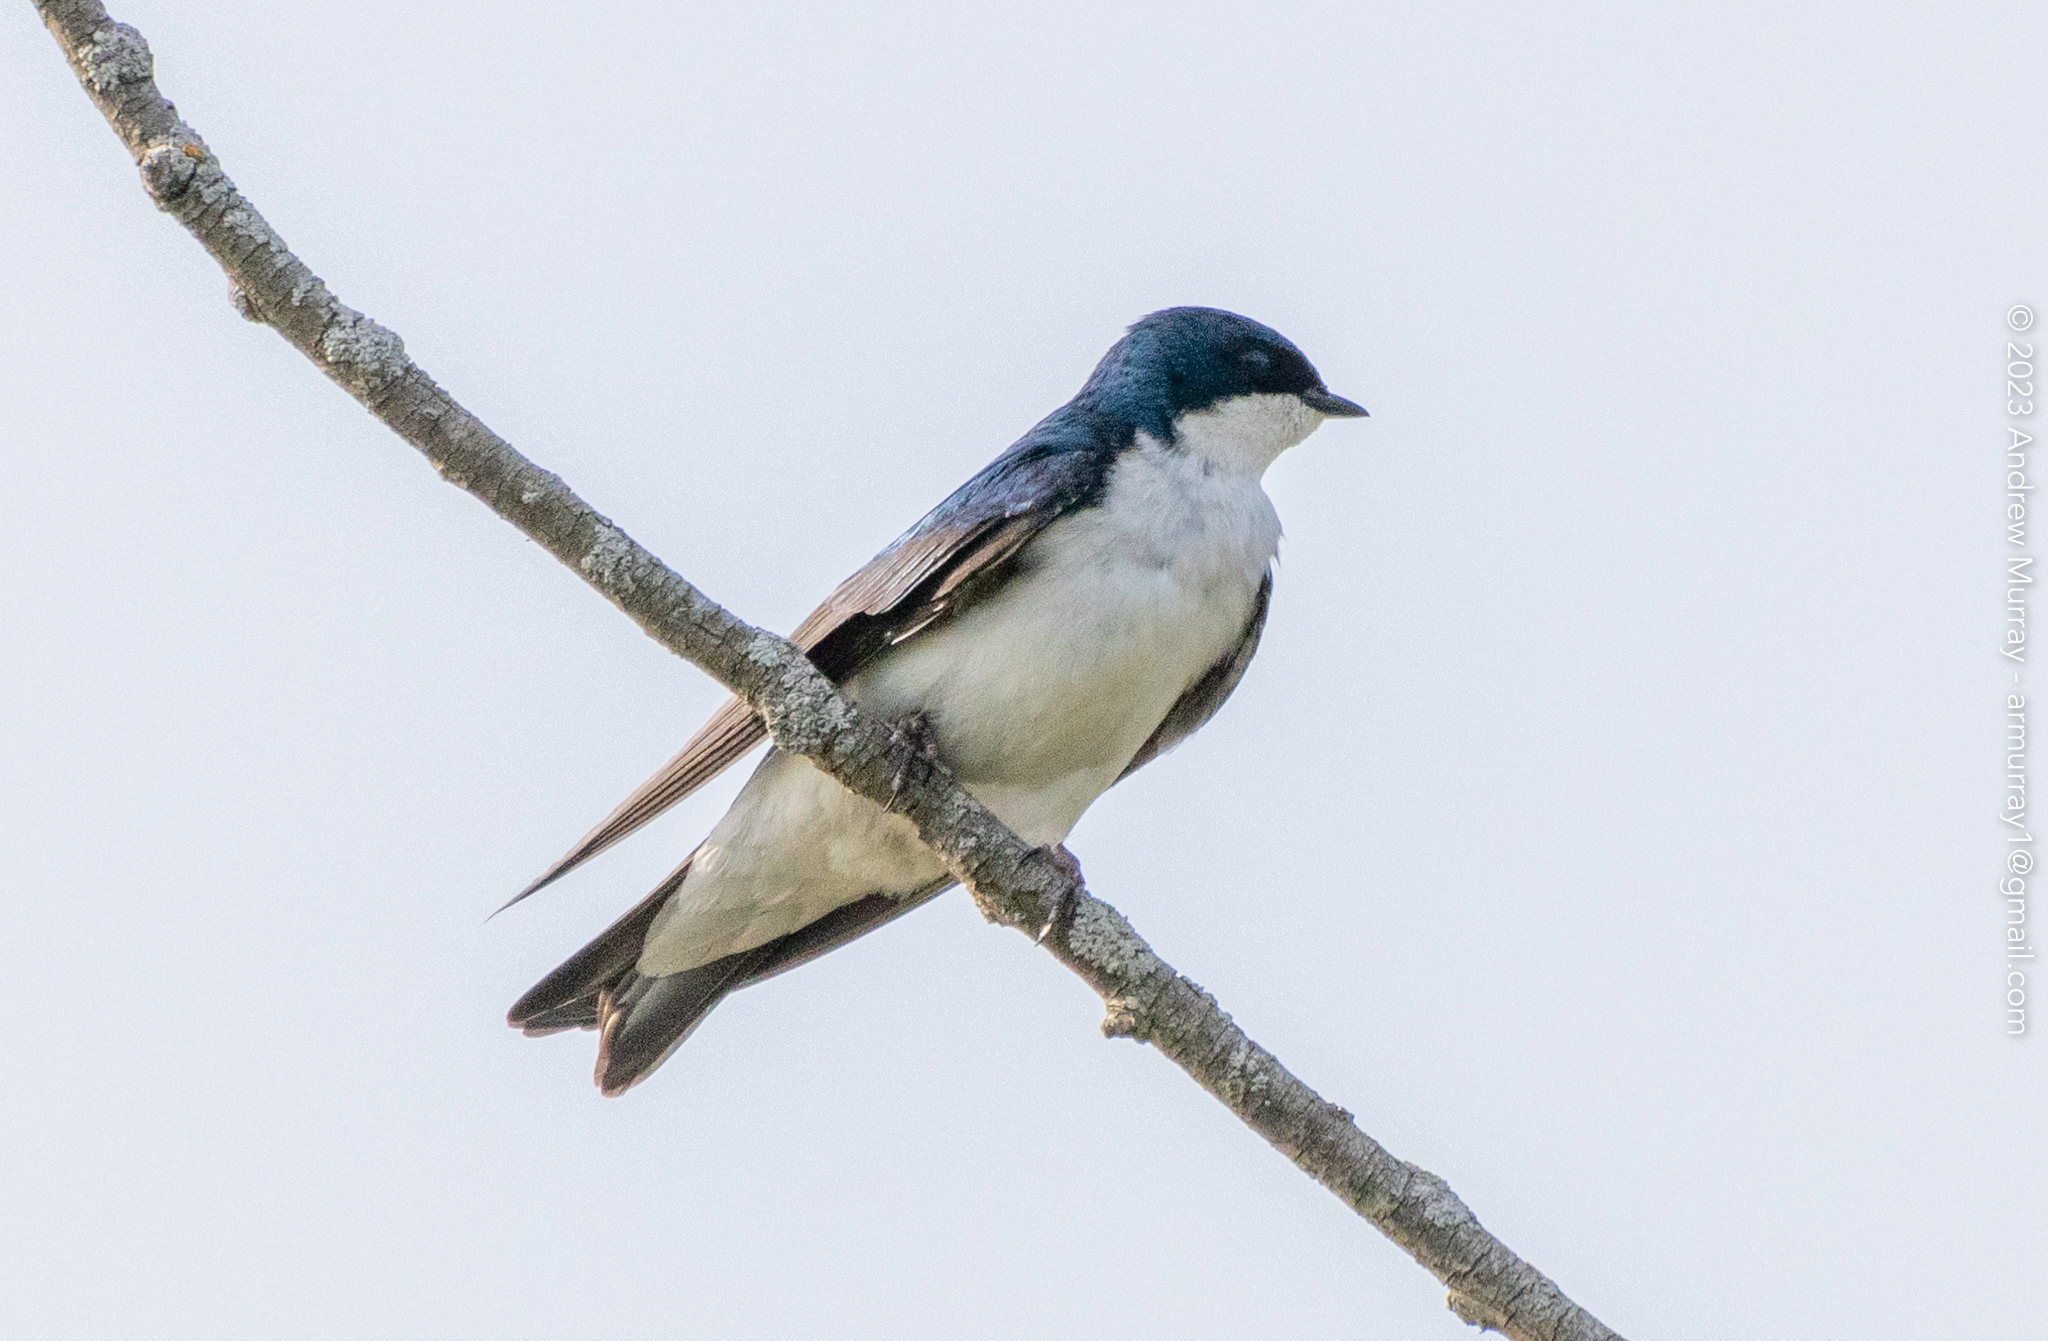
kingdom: Animalia
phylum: Chordata
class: Aves
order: Passeriformes
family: Hirundinidae
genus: Tachycineta
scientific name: Tachycineta bicolor
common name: Tree swallow
